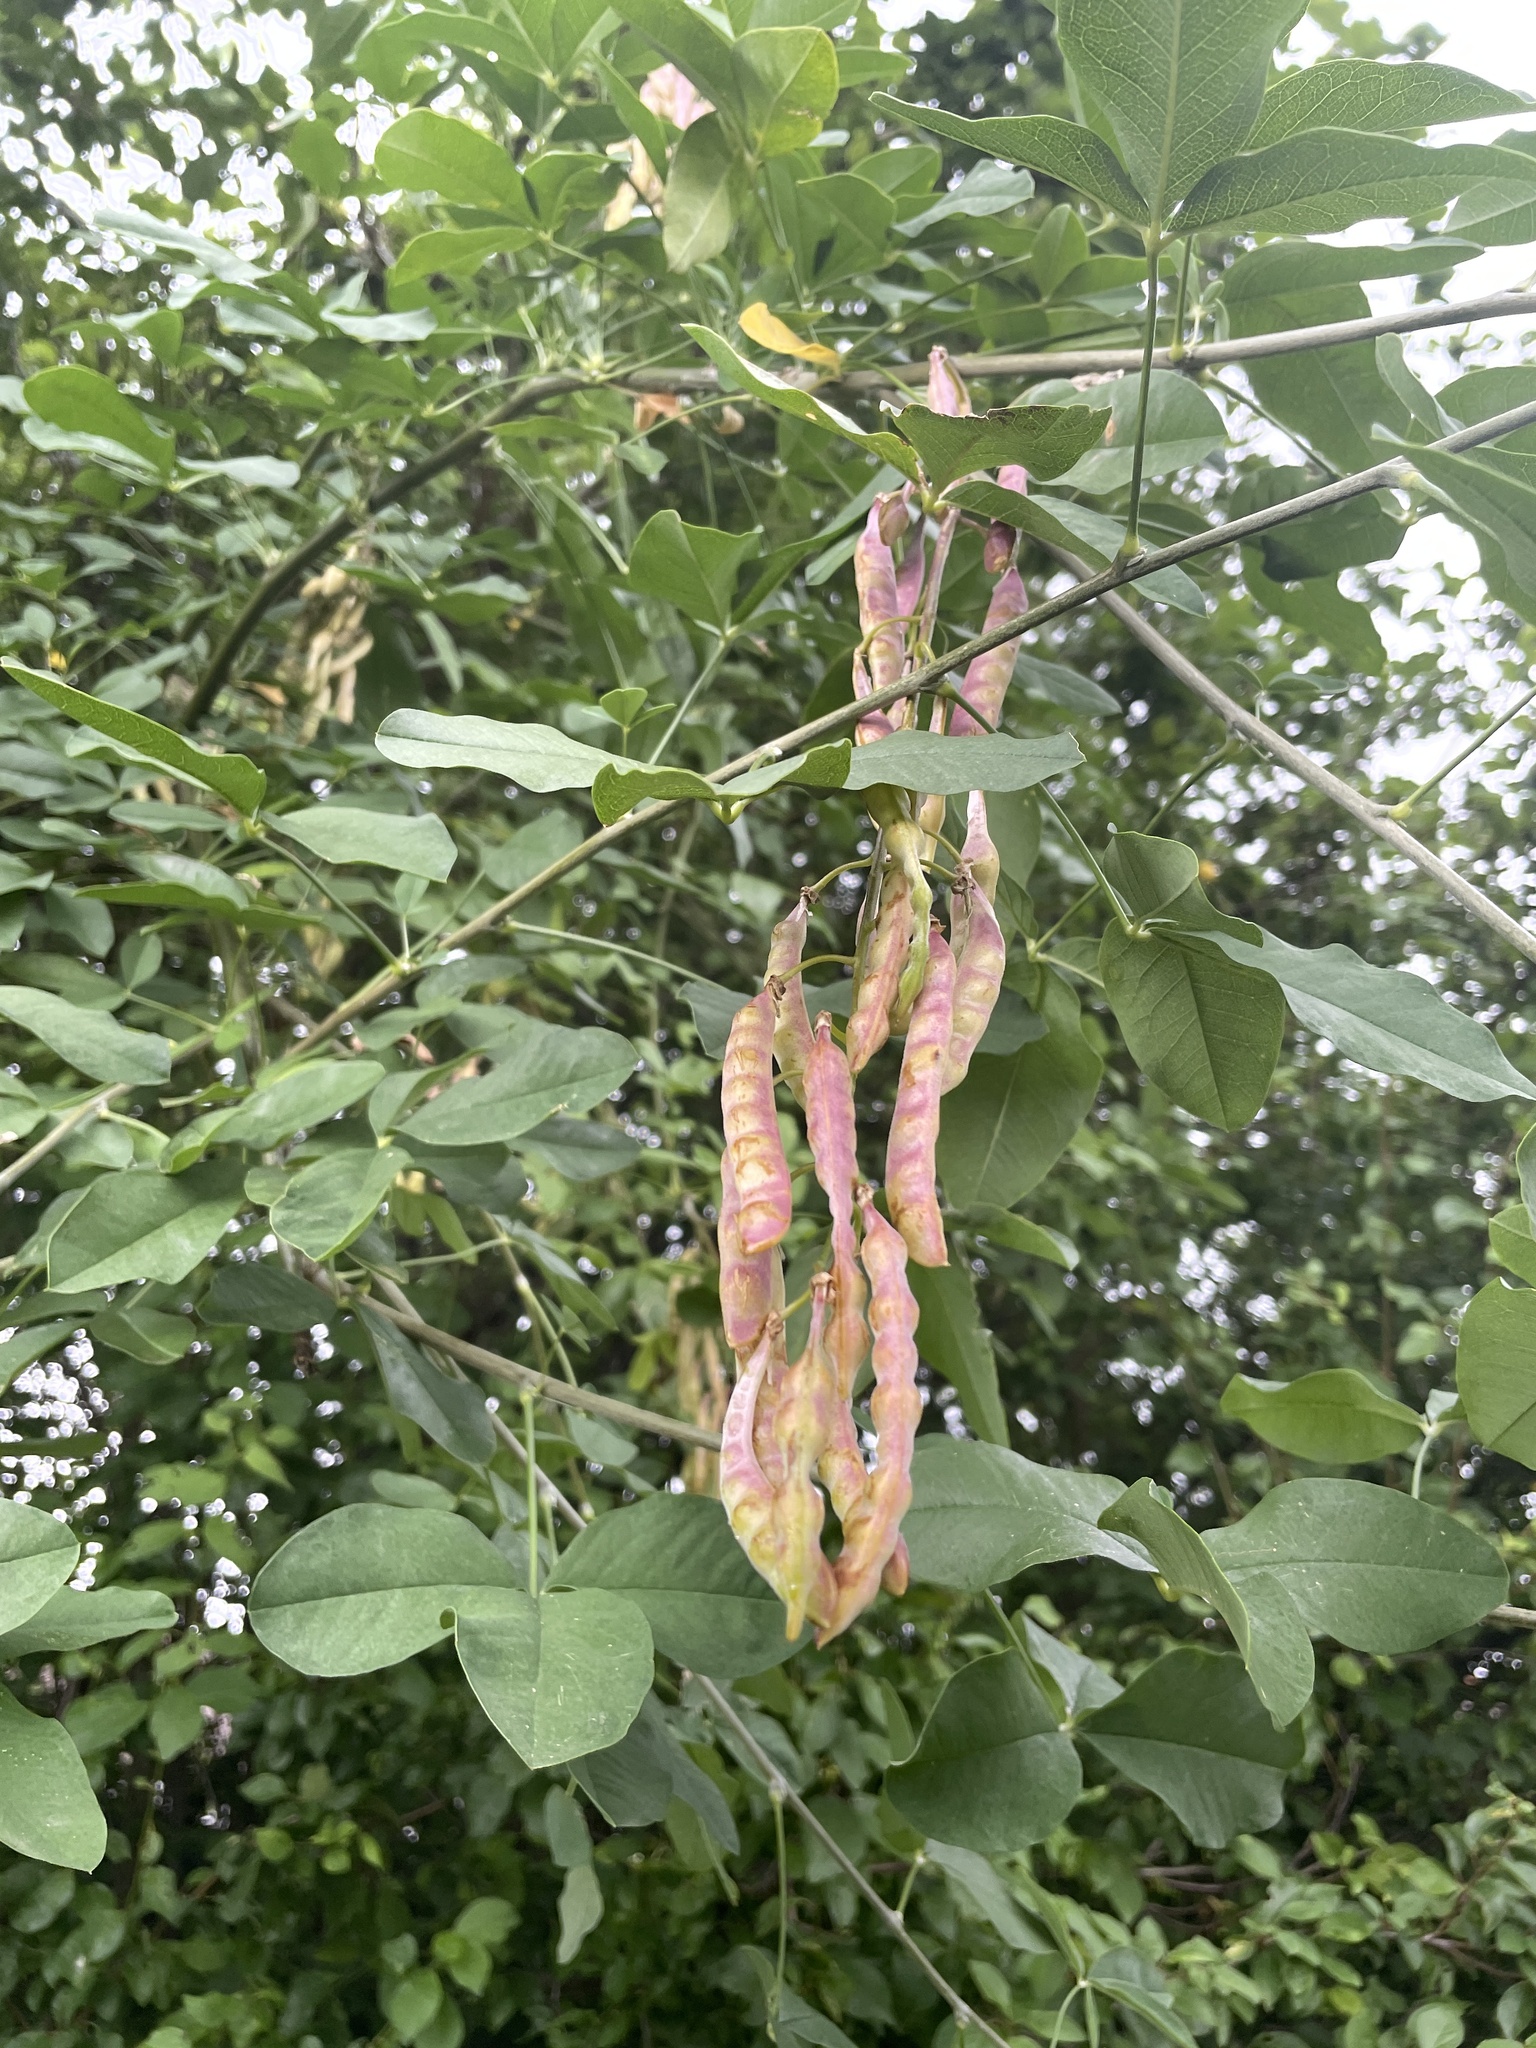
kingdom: Plantae
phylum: Tracheophyta
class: Magnoliopsida
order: Fabales
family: Fabaceae
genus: Laburnum
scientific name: Laburnum anagyroides
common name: Laburnum
